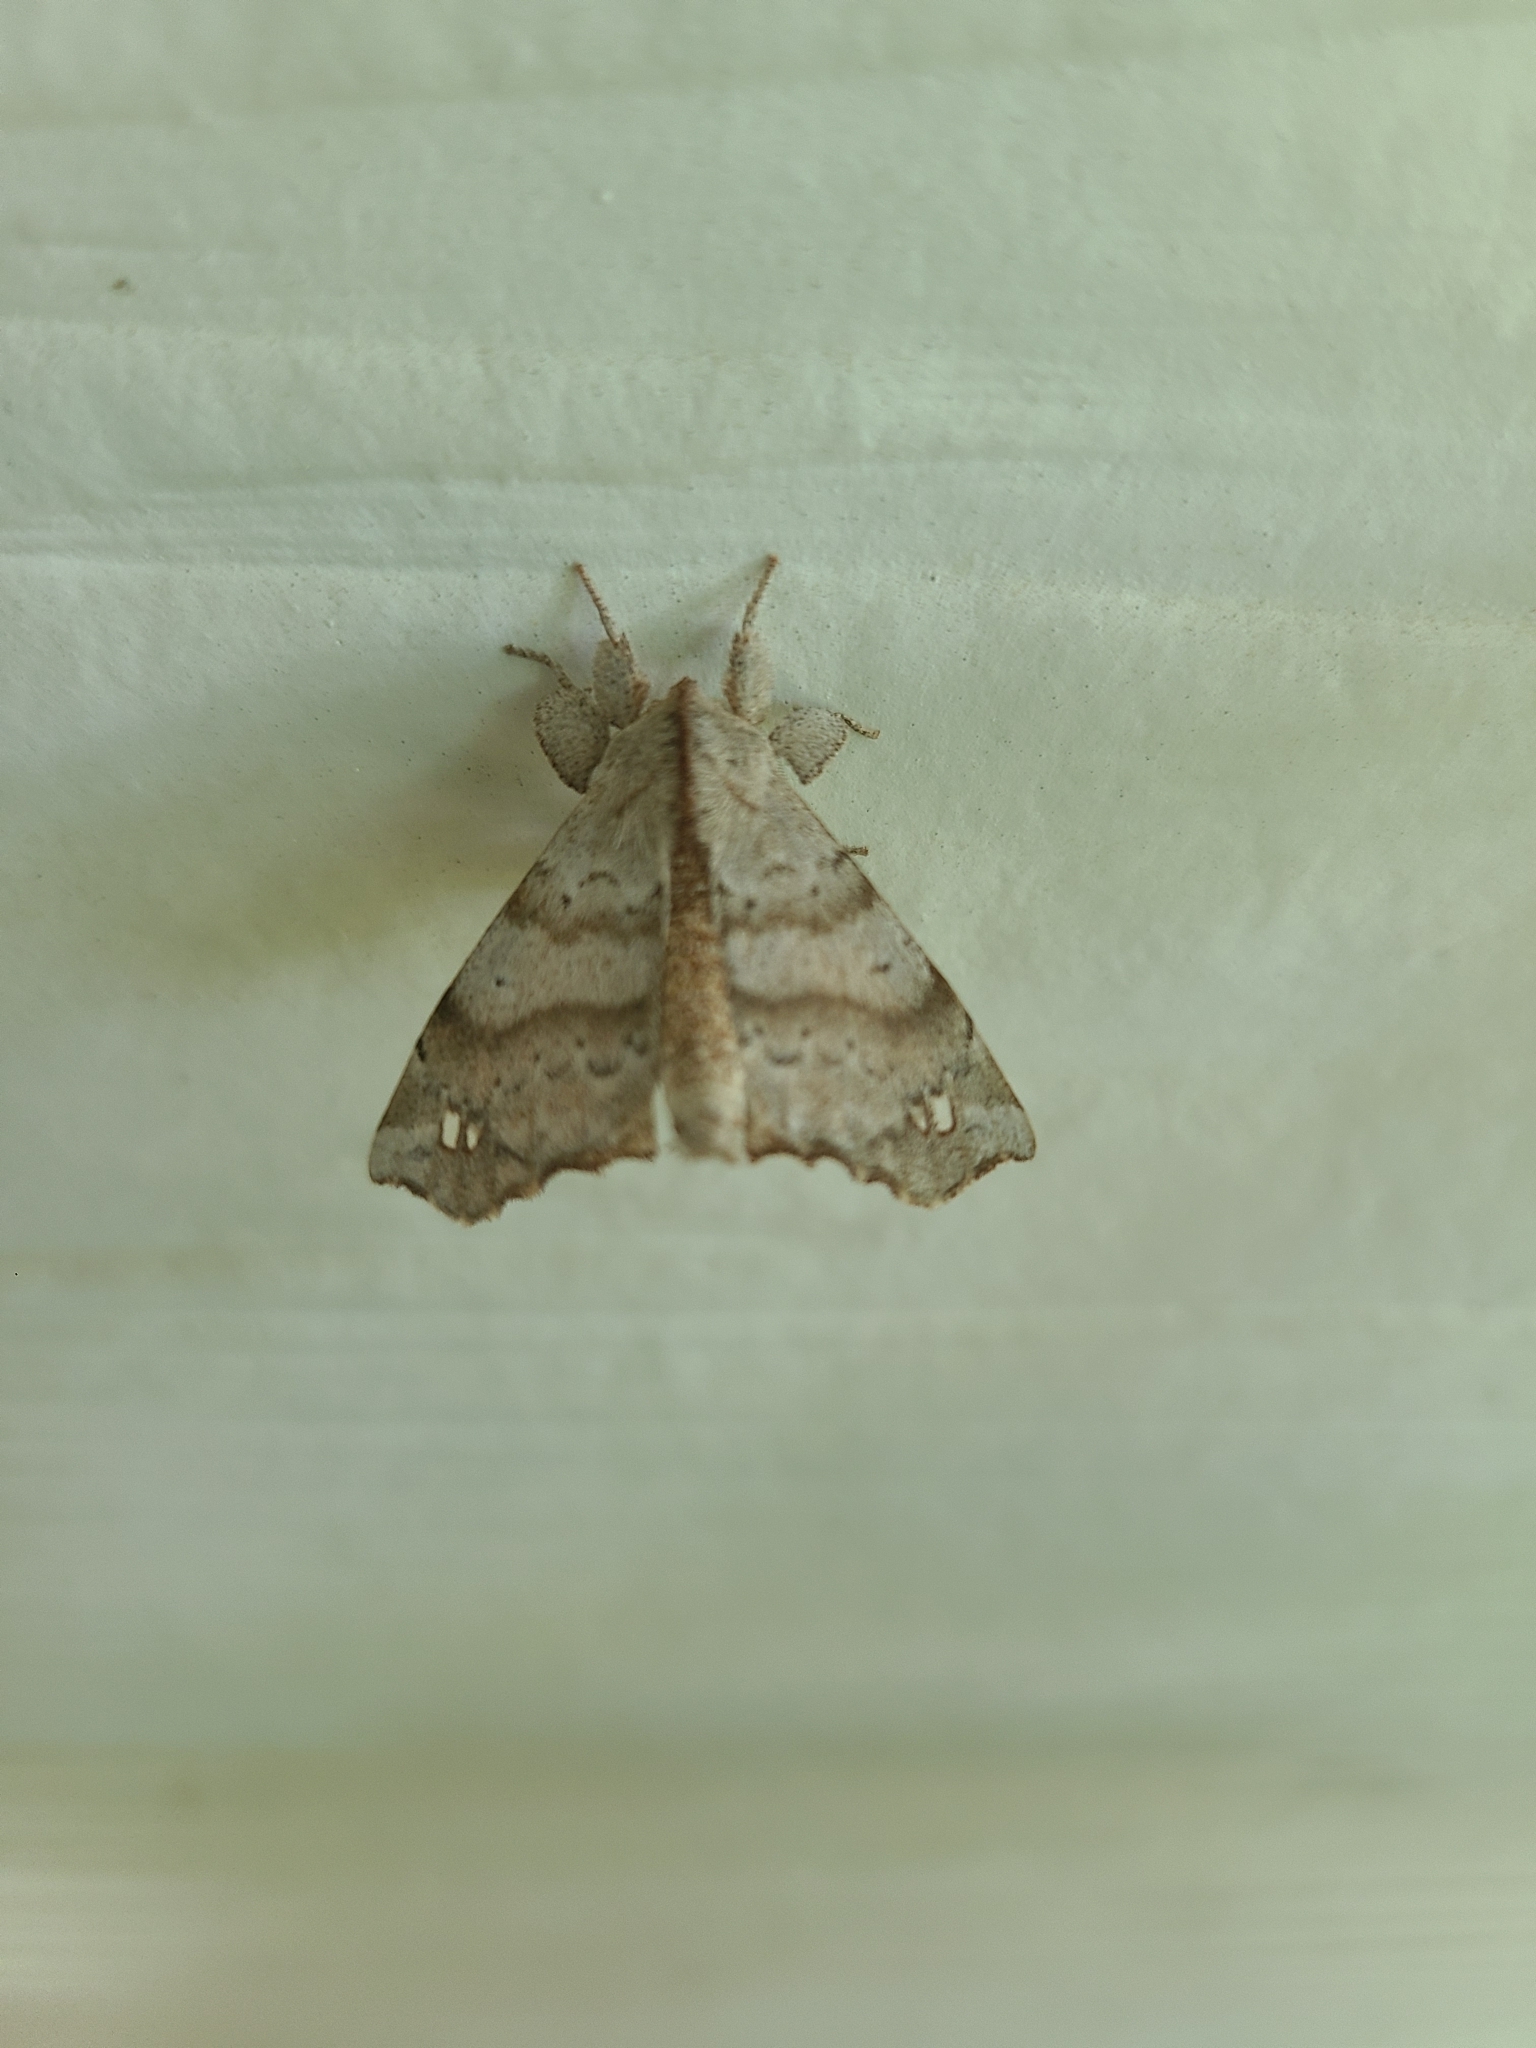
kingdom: Animalia
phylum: Arthropoda
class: Insecta
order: Lepidoptera
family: Apatelodidae
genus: Olceclostera
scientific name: Olceclostera angelica
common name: Angel moth
